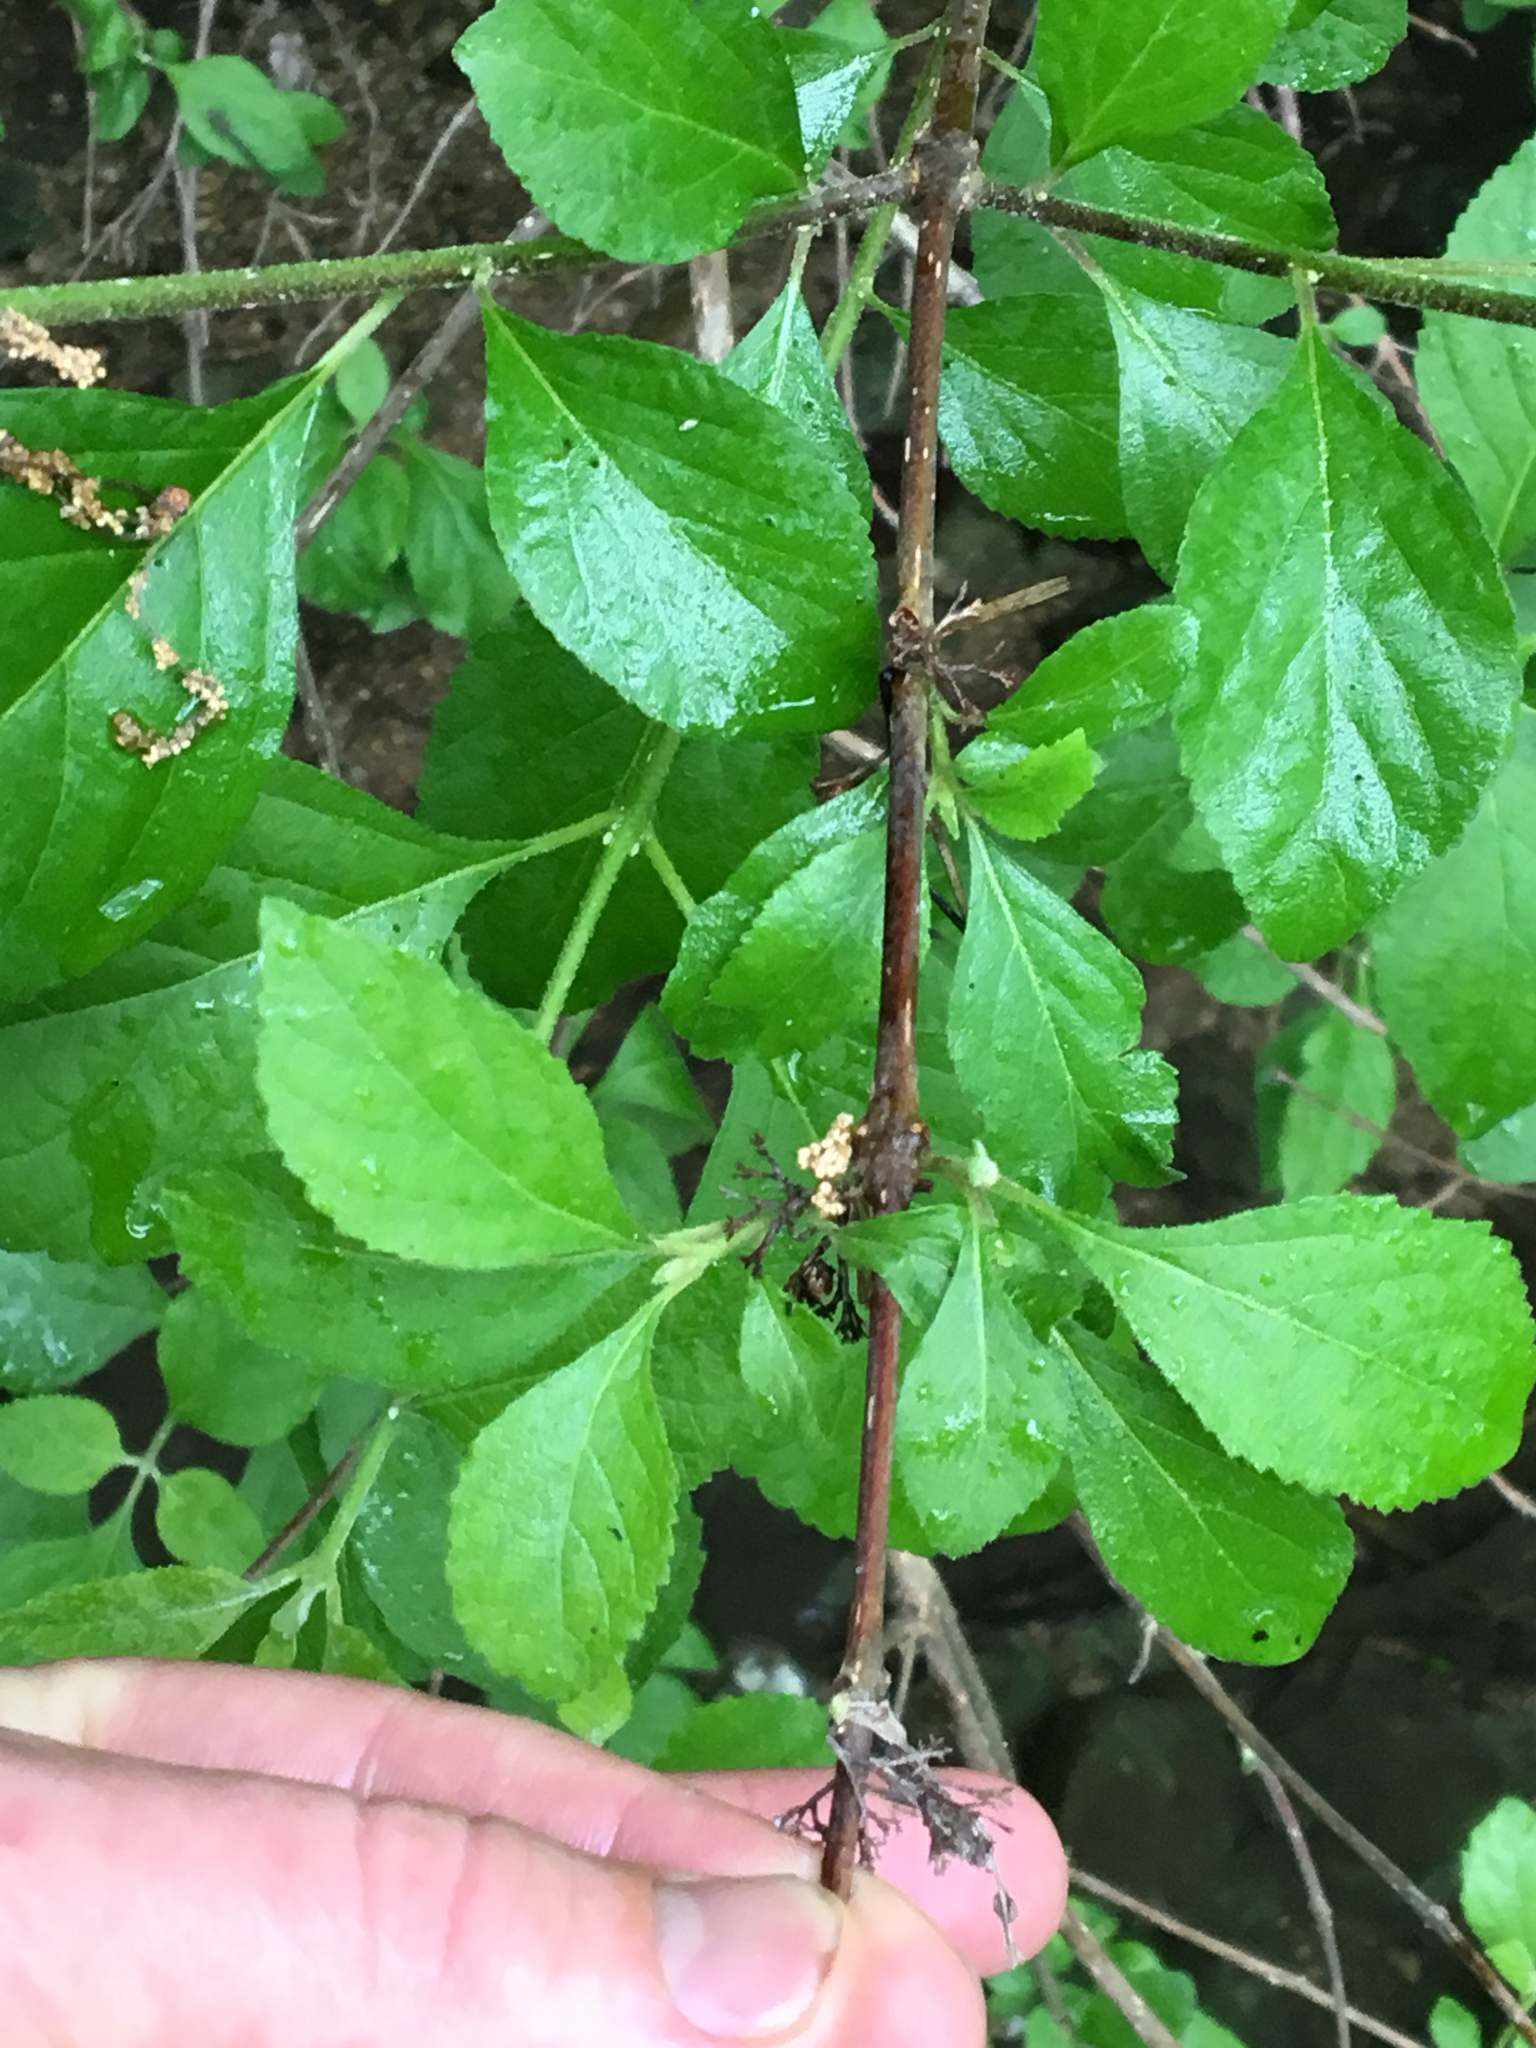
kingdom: Plantae
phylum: Tracheophyta
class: Magnoliopsida
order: Lamiales
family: Lamiaceae
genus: Callicarpa
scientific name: Callicarpa americana
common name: American beautyberry
